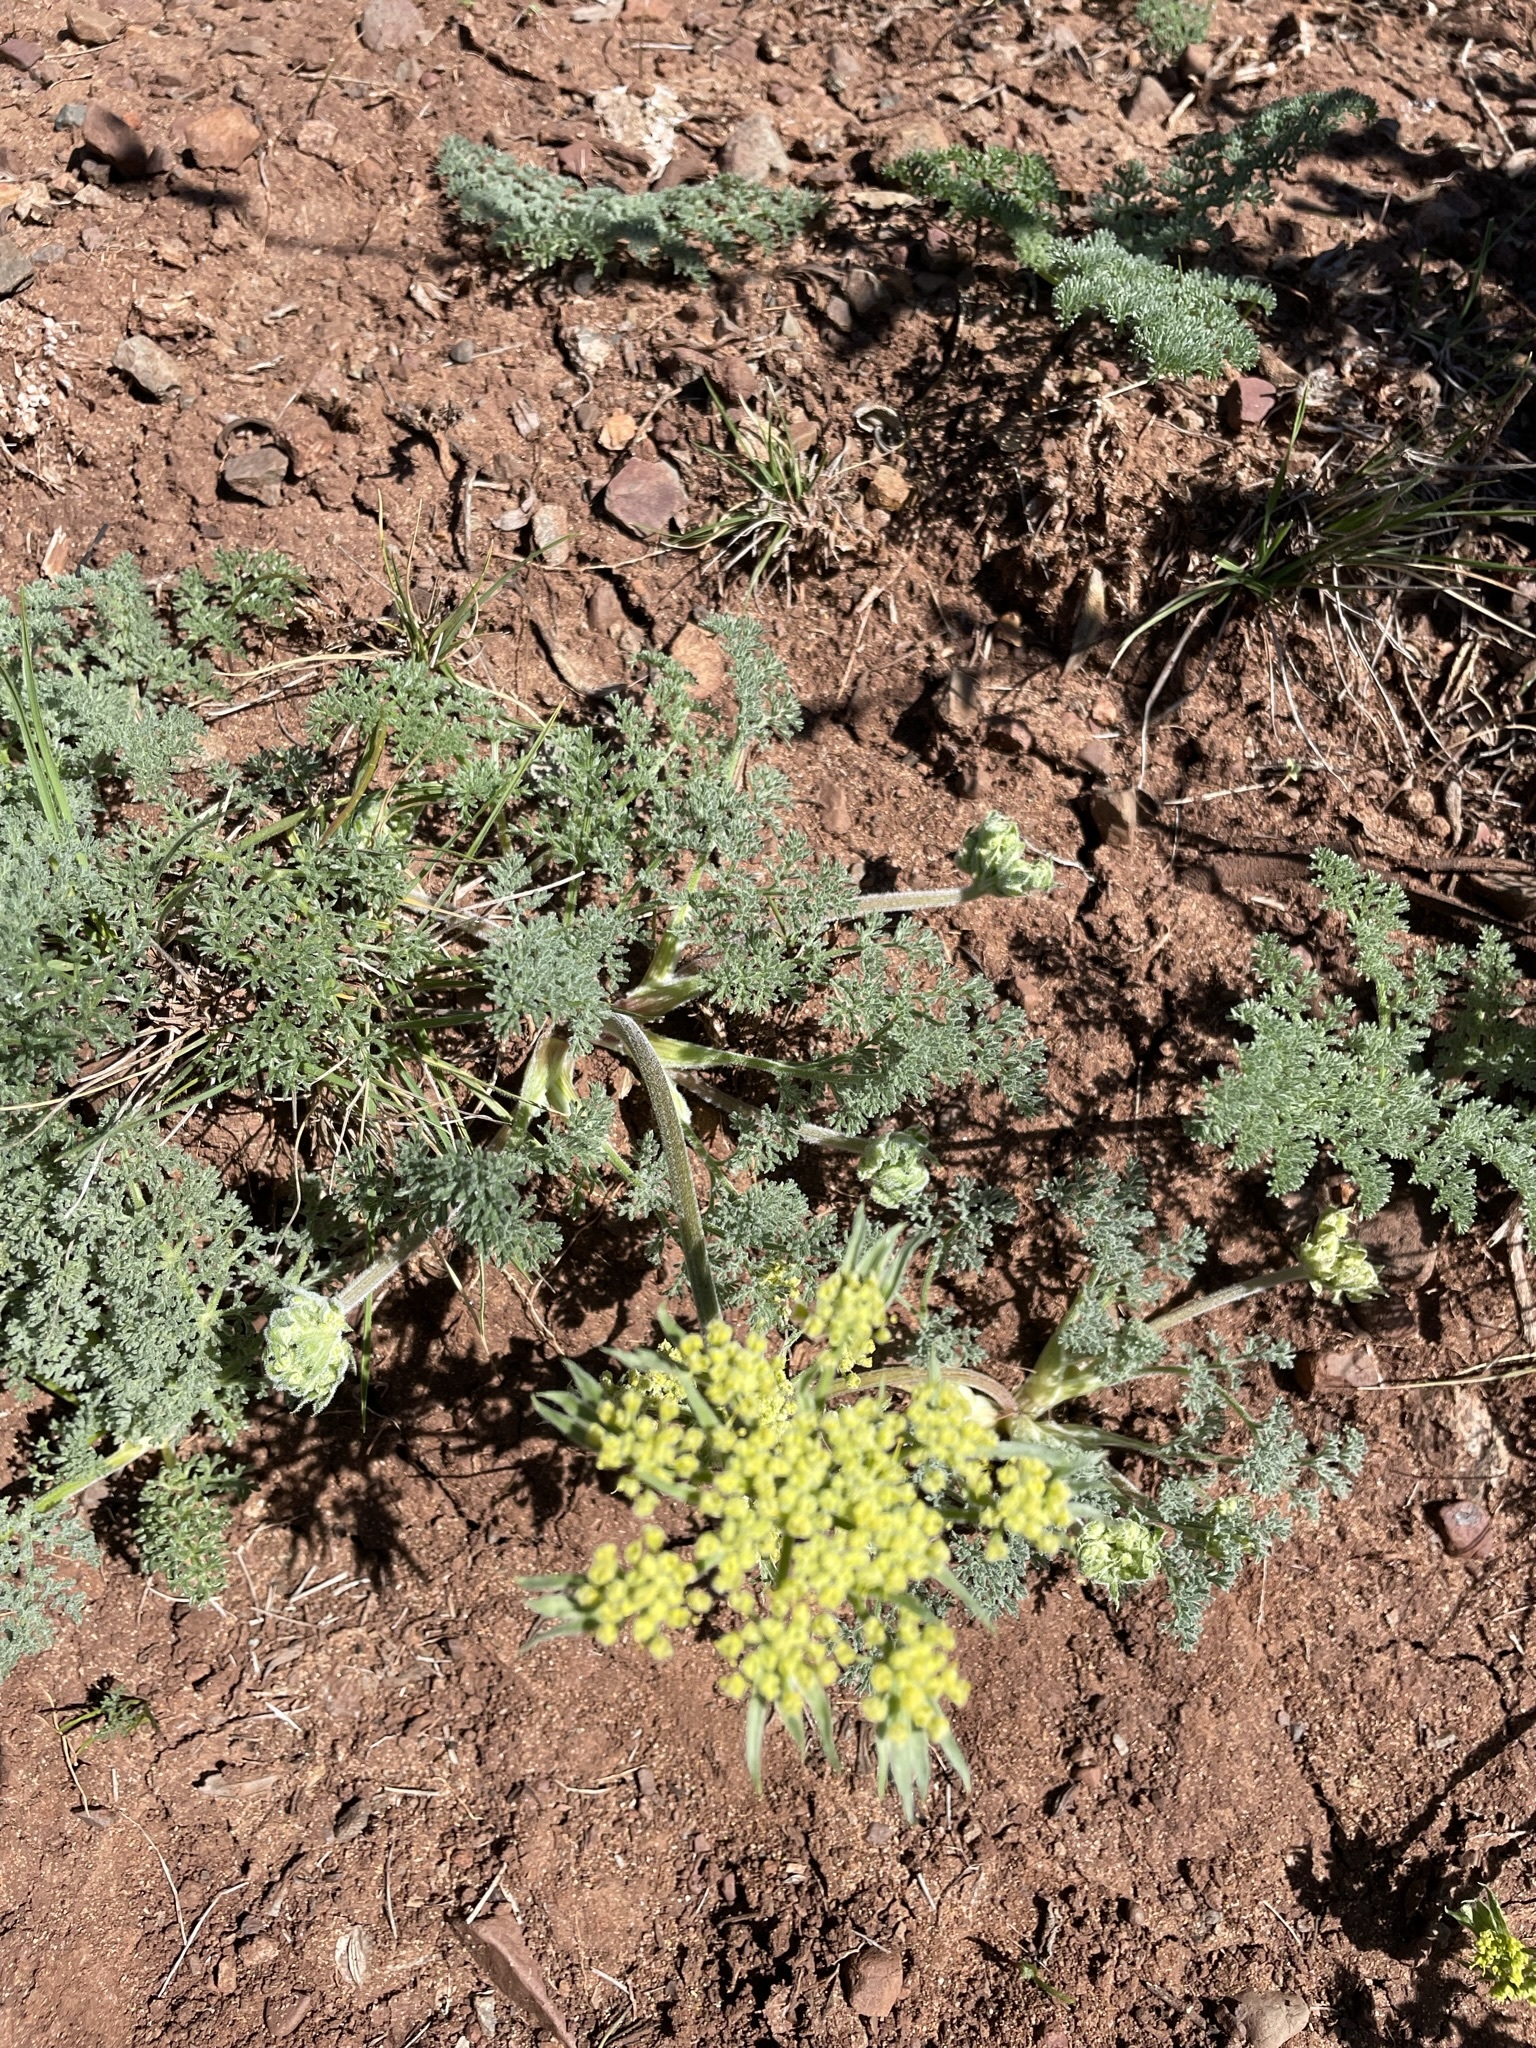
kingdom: Plantae
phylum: Tracheophyta
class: Magnoliopsida
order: Apiales
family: Apiaceae
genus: Lomatium
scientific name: Lomatium dasycarpum
